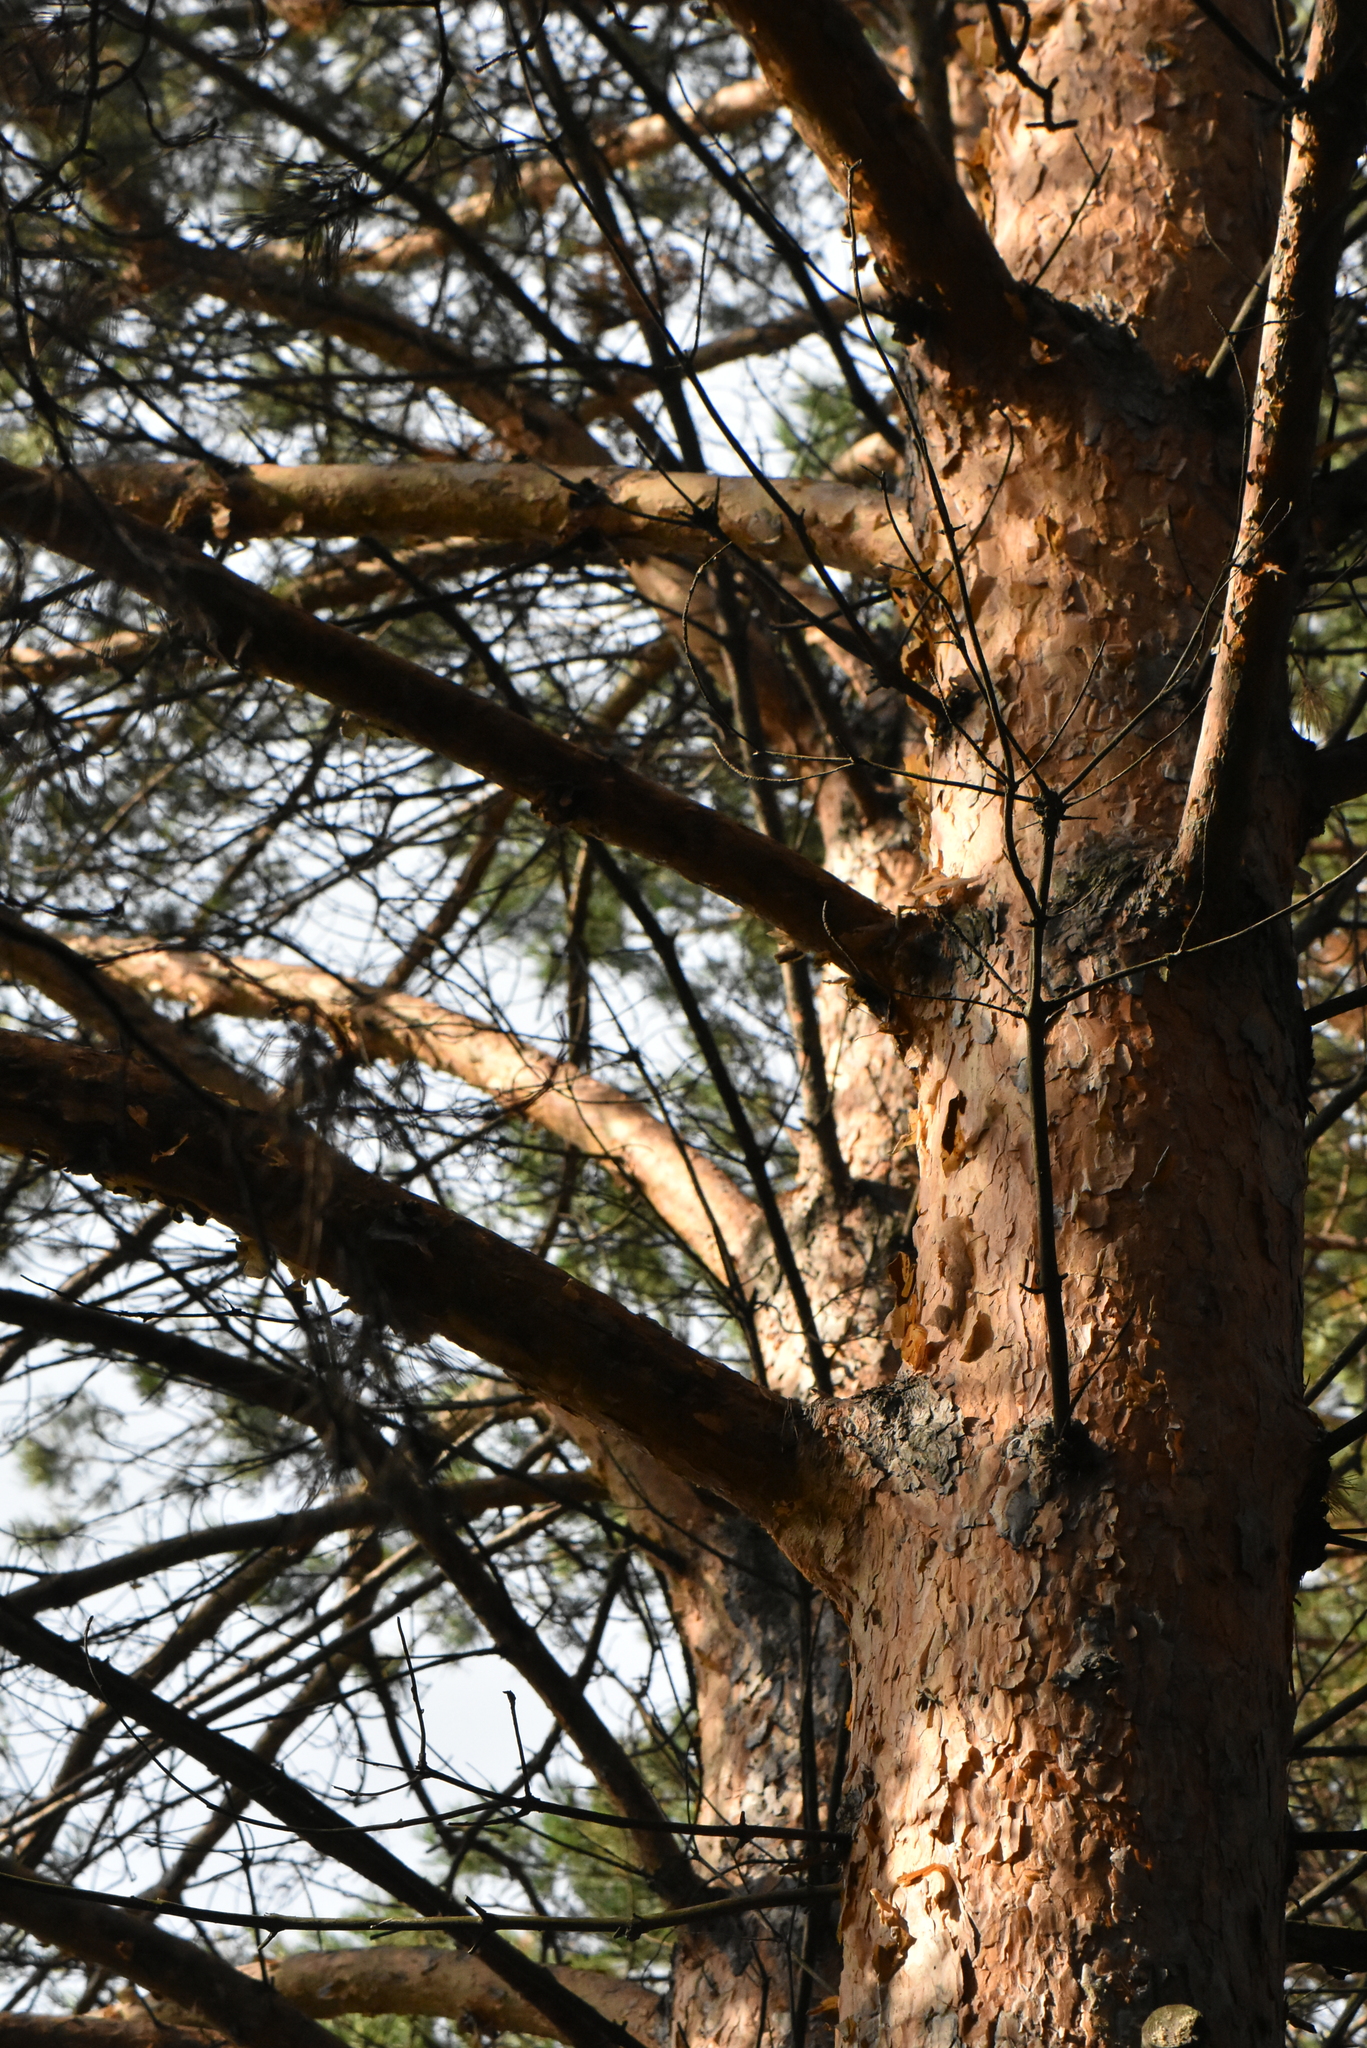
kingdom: Plantae
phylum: Tracheophyta
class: Pinopsida
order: Pinales
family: Pinaceae
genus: Pinus
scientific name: Pinus sylvestris
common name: Scots pine
